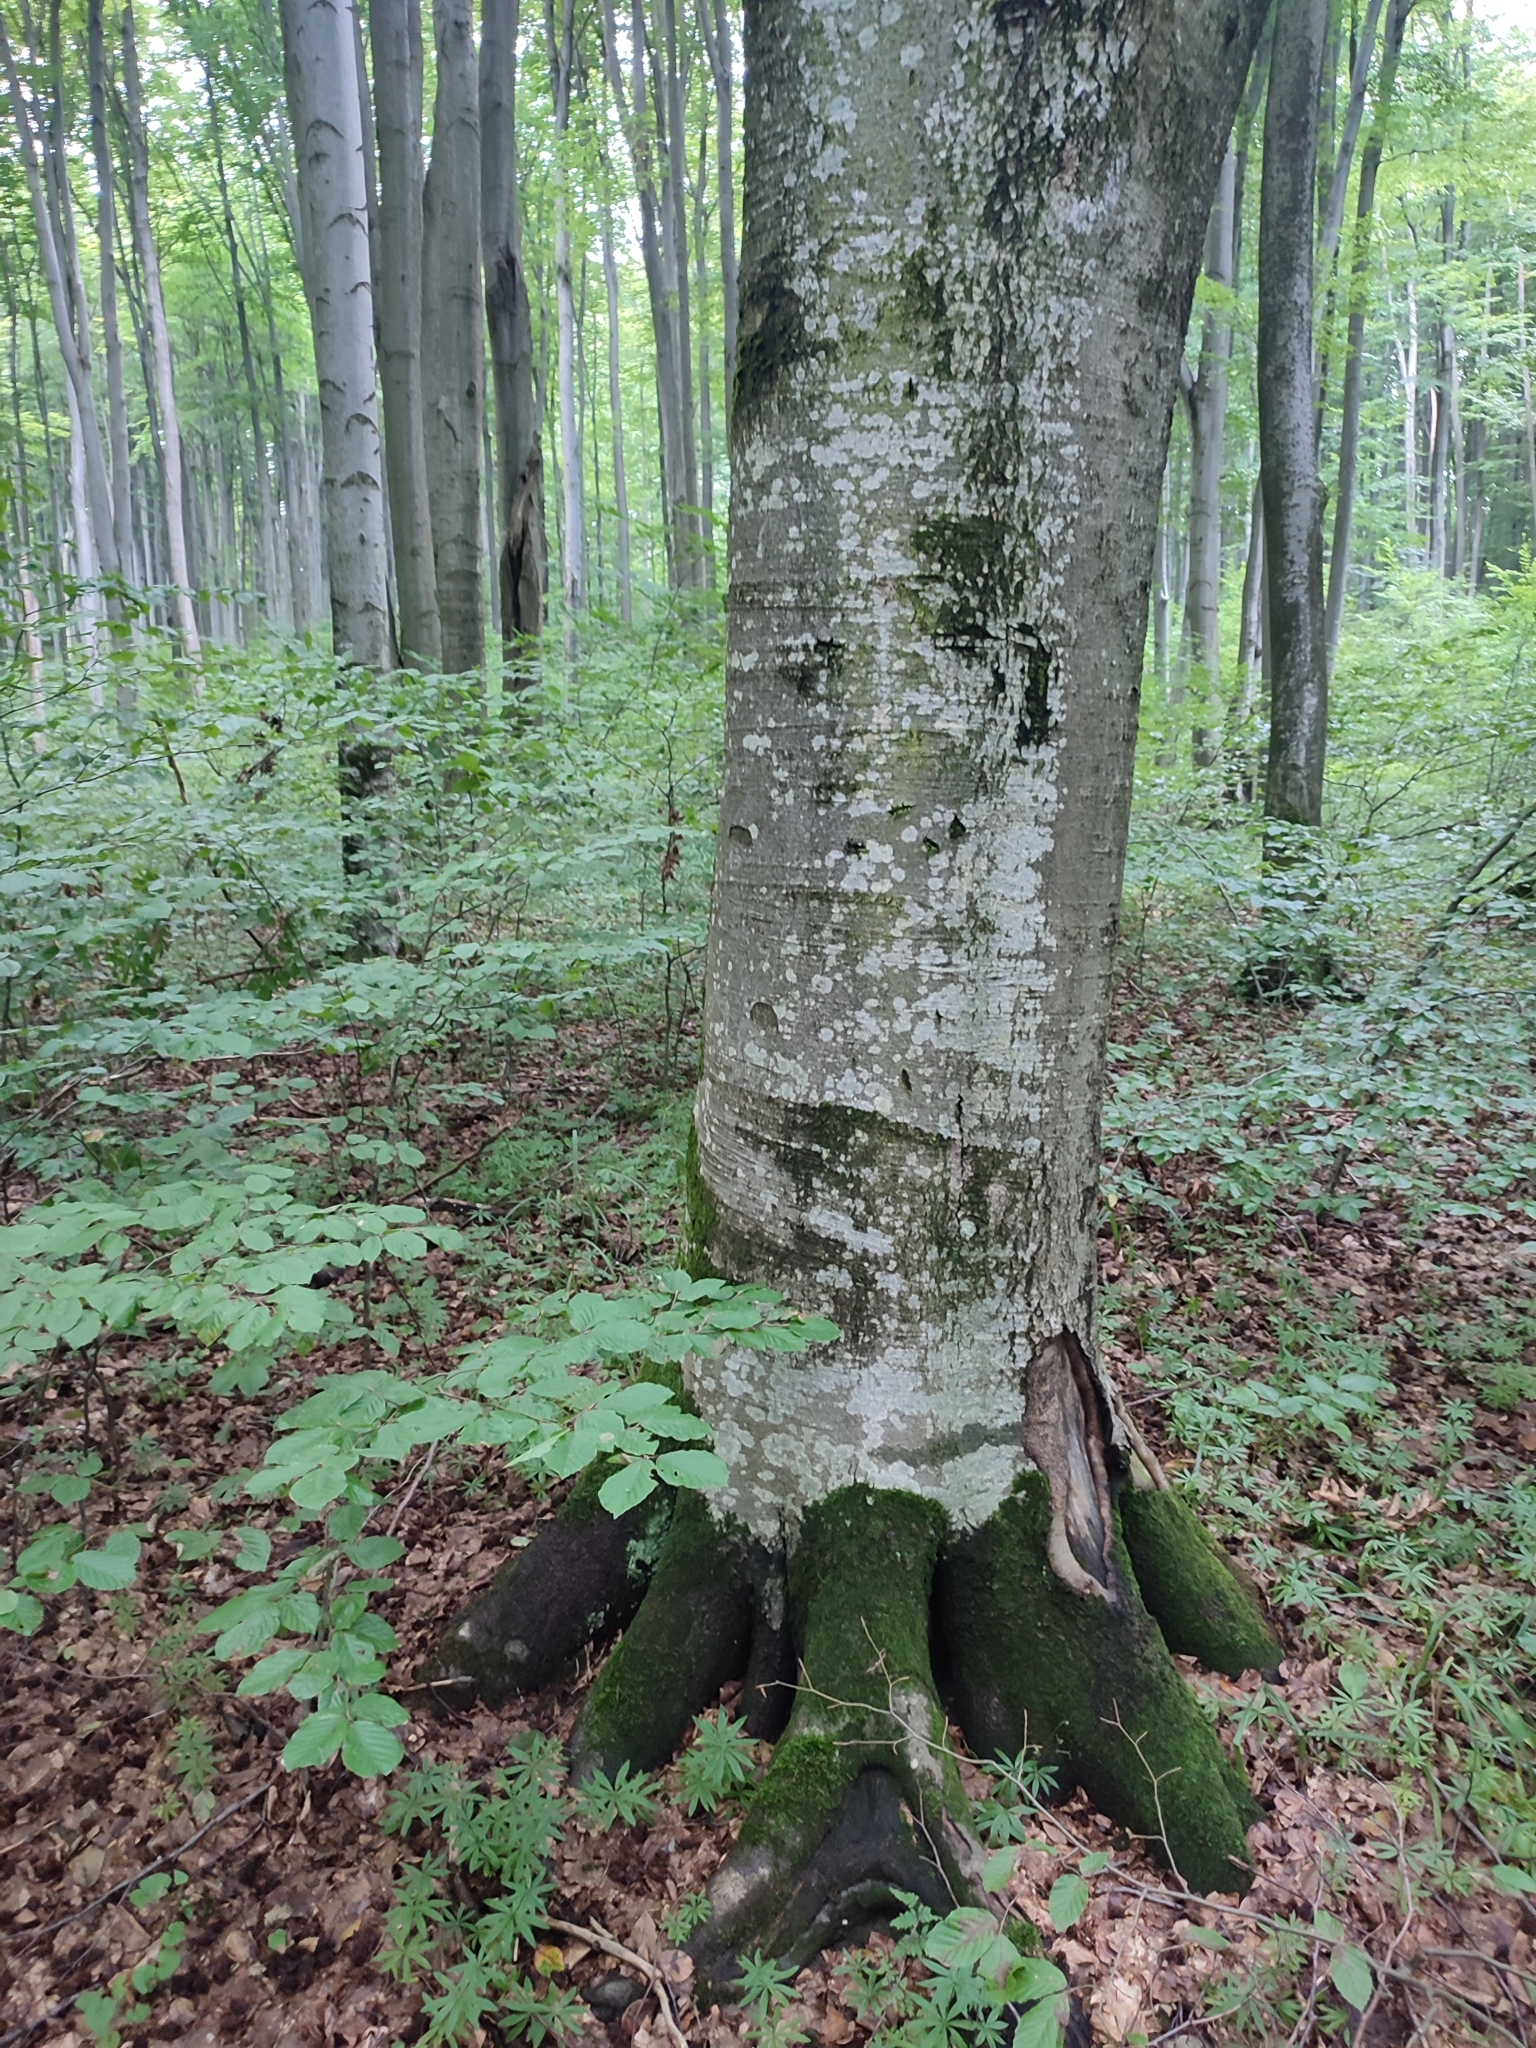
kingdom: Plantae
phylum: Tracheophyta
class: Magnoliopsida
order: Fagales
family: Fagaceae
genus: Fagus
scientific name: Fagus sylvatica
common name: Beech
